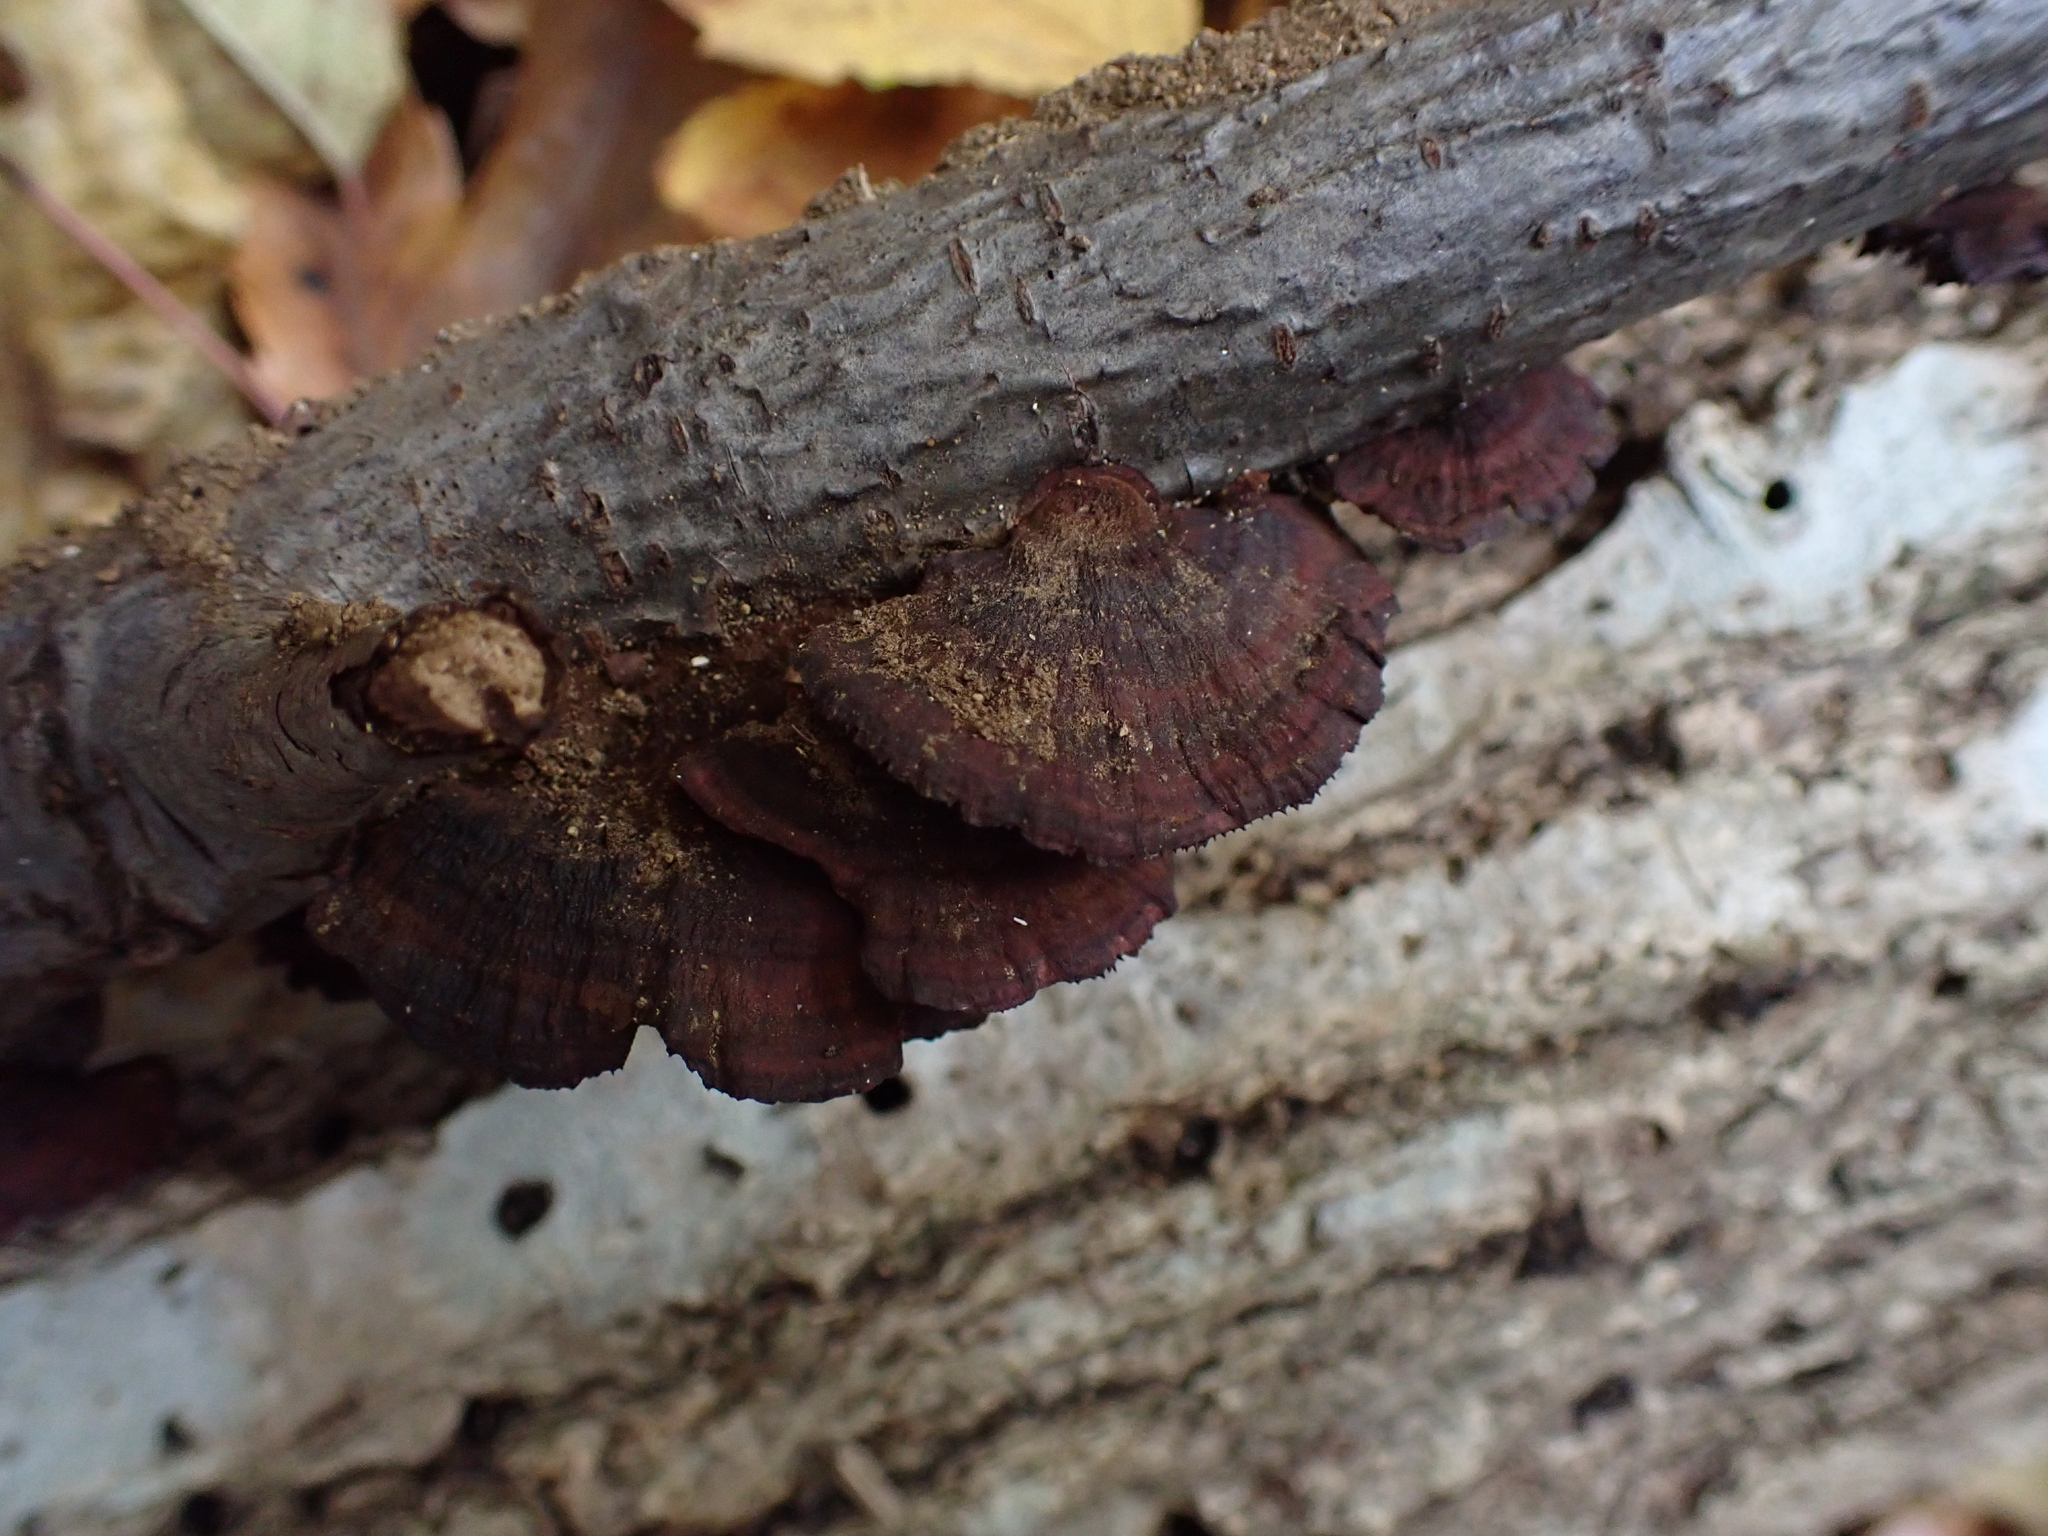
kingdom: Fungi
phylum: Basidiomycota
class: Agaricomycetes
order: Polyporales
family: Polyporaceae
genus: Daedaleopsis
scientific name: Daedaleopsis tricolor
